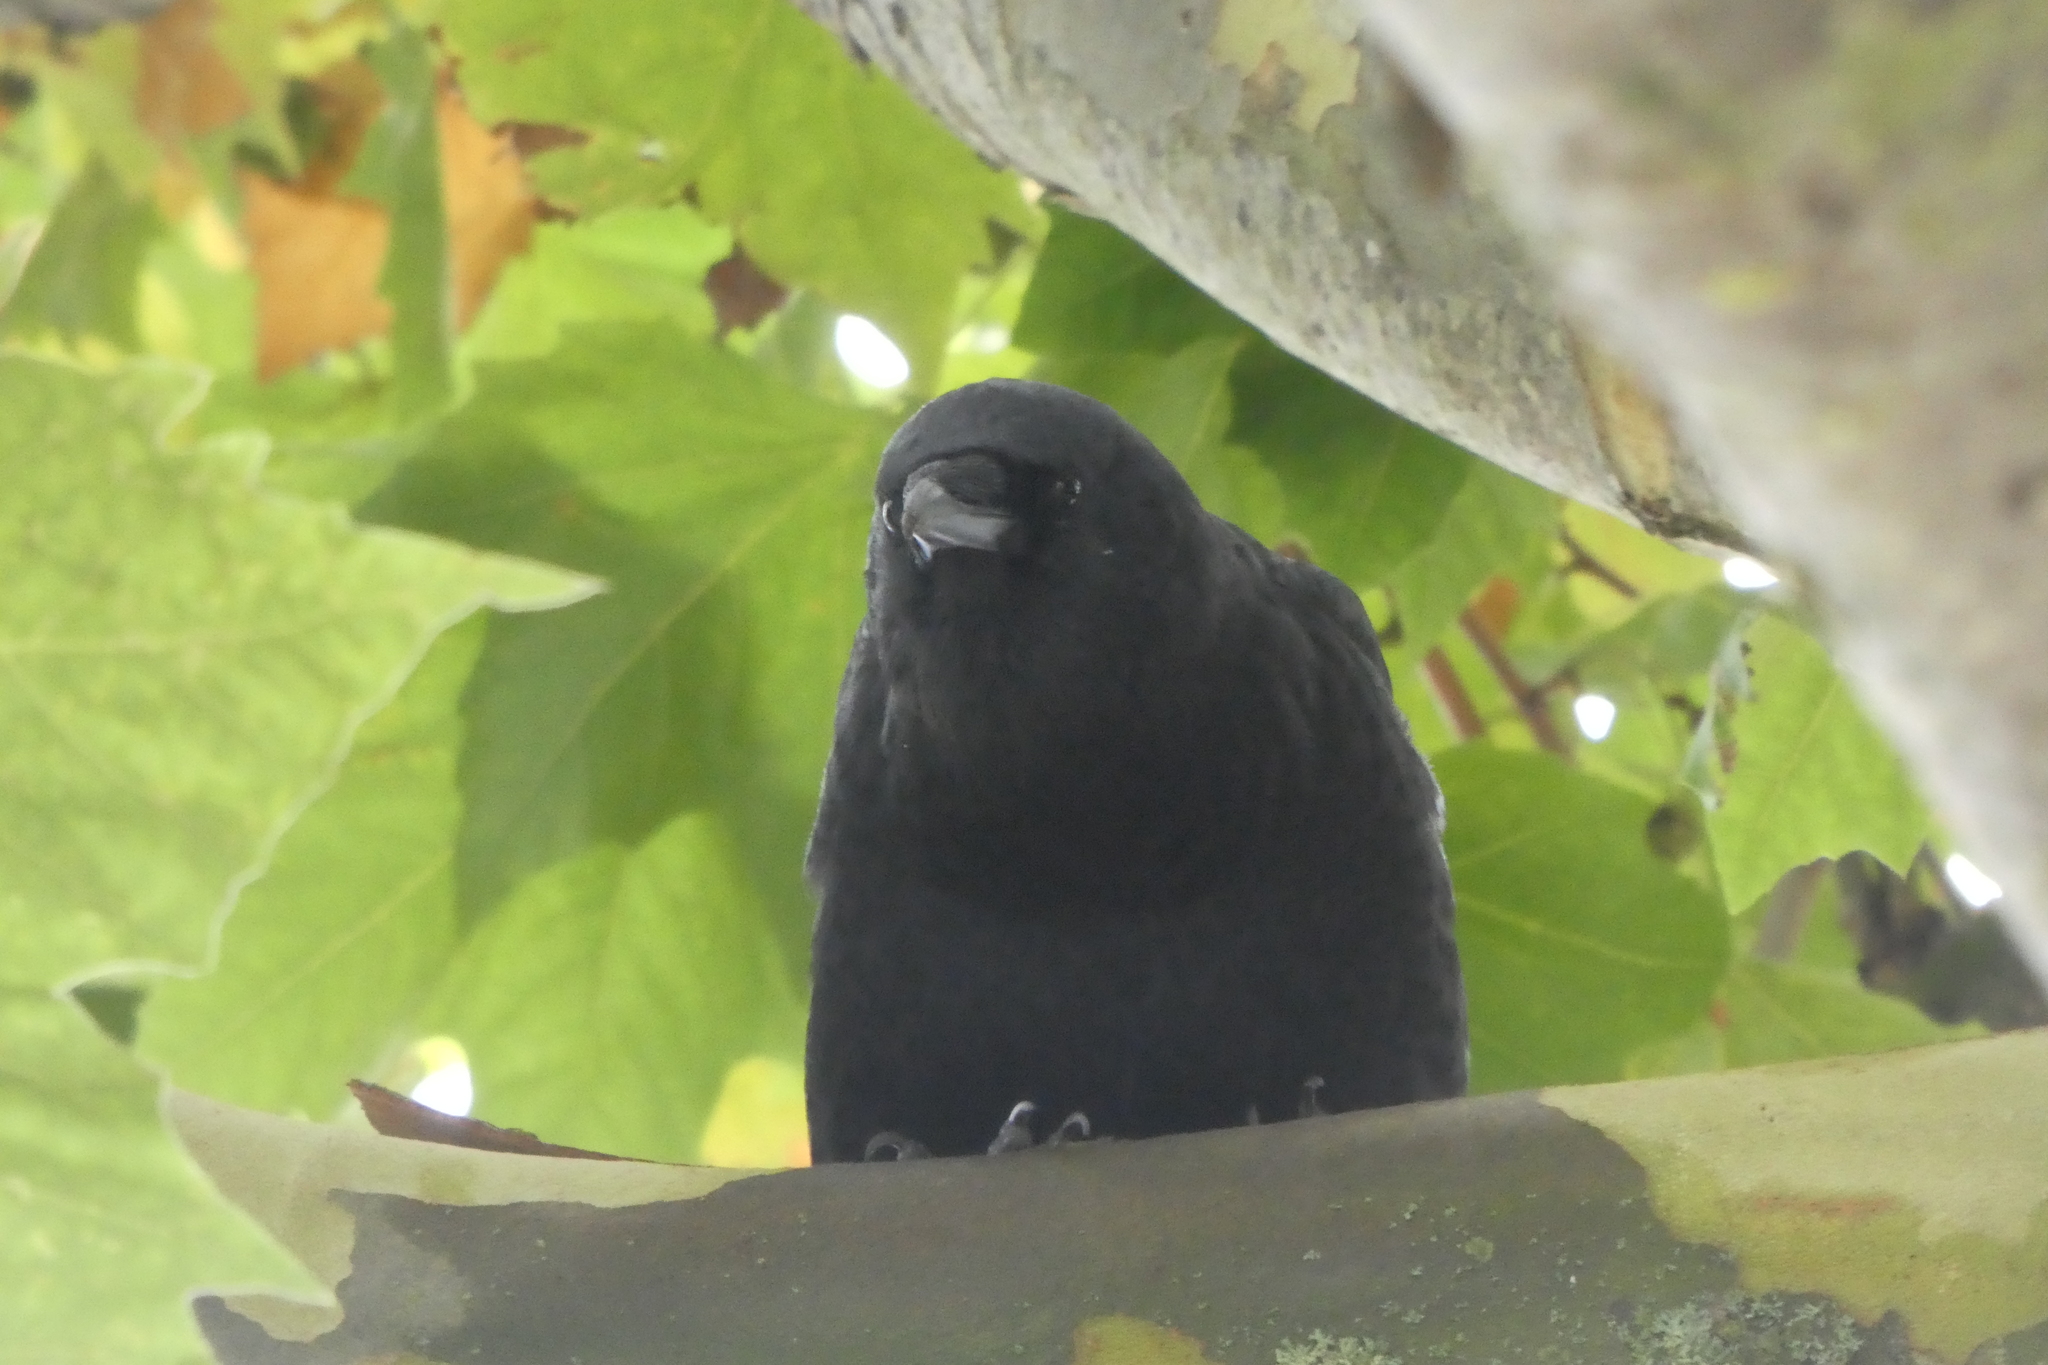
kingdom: Animalia
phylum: Chordata
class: Aves
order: Passeriformes
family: Corvidae
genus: Corvus
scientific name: Corvus brachyrhynchos
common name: American crow
